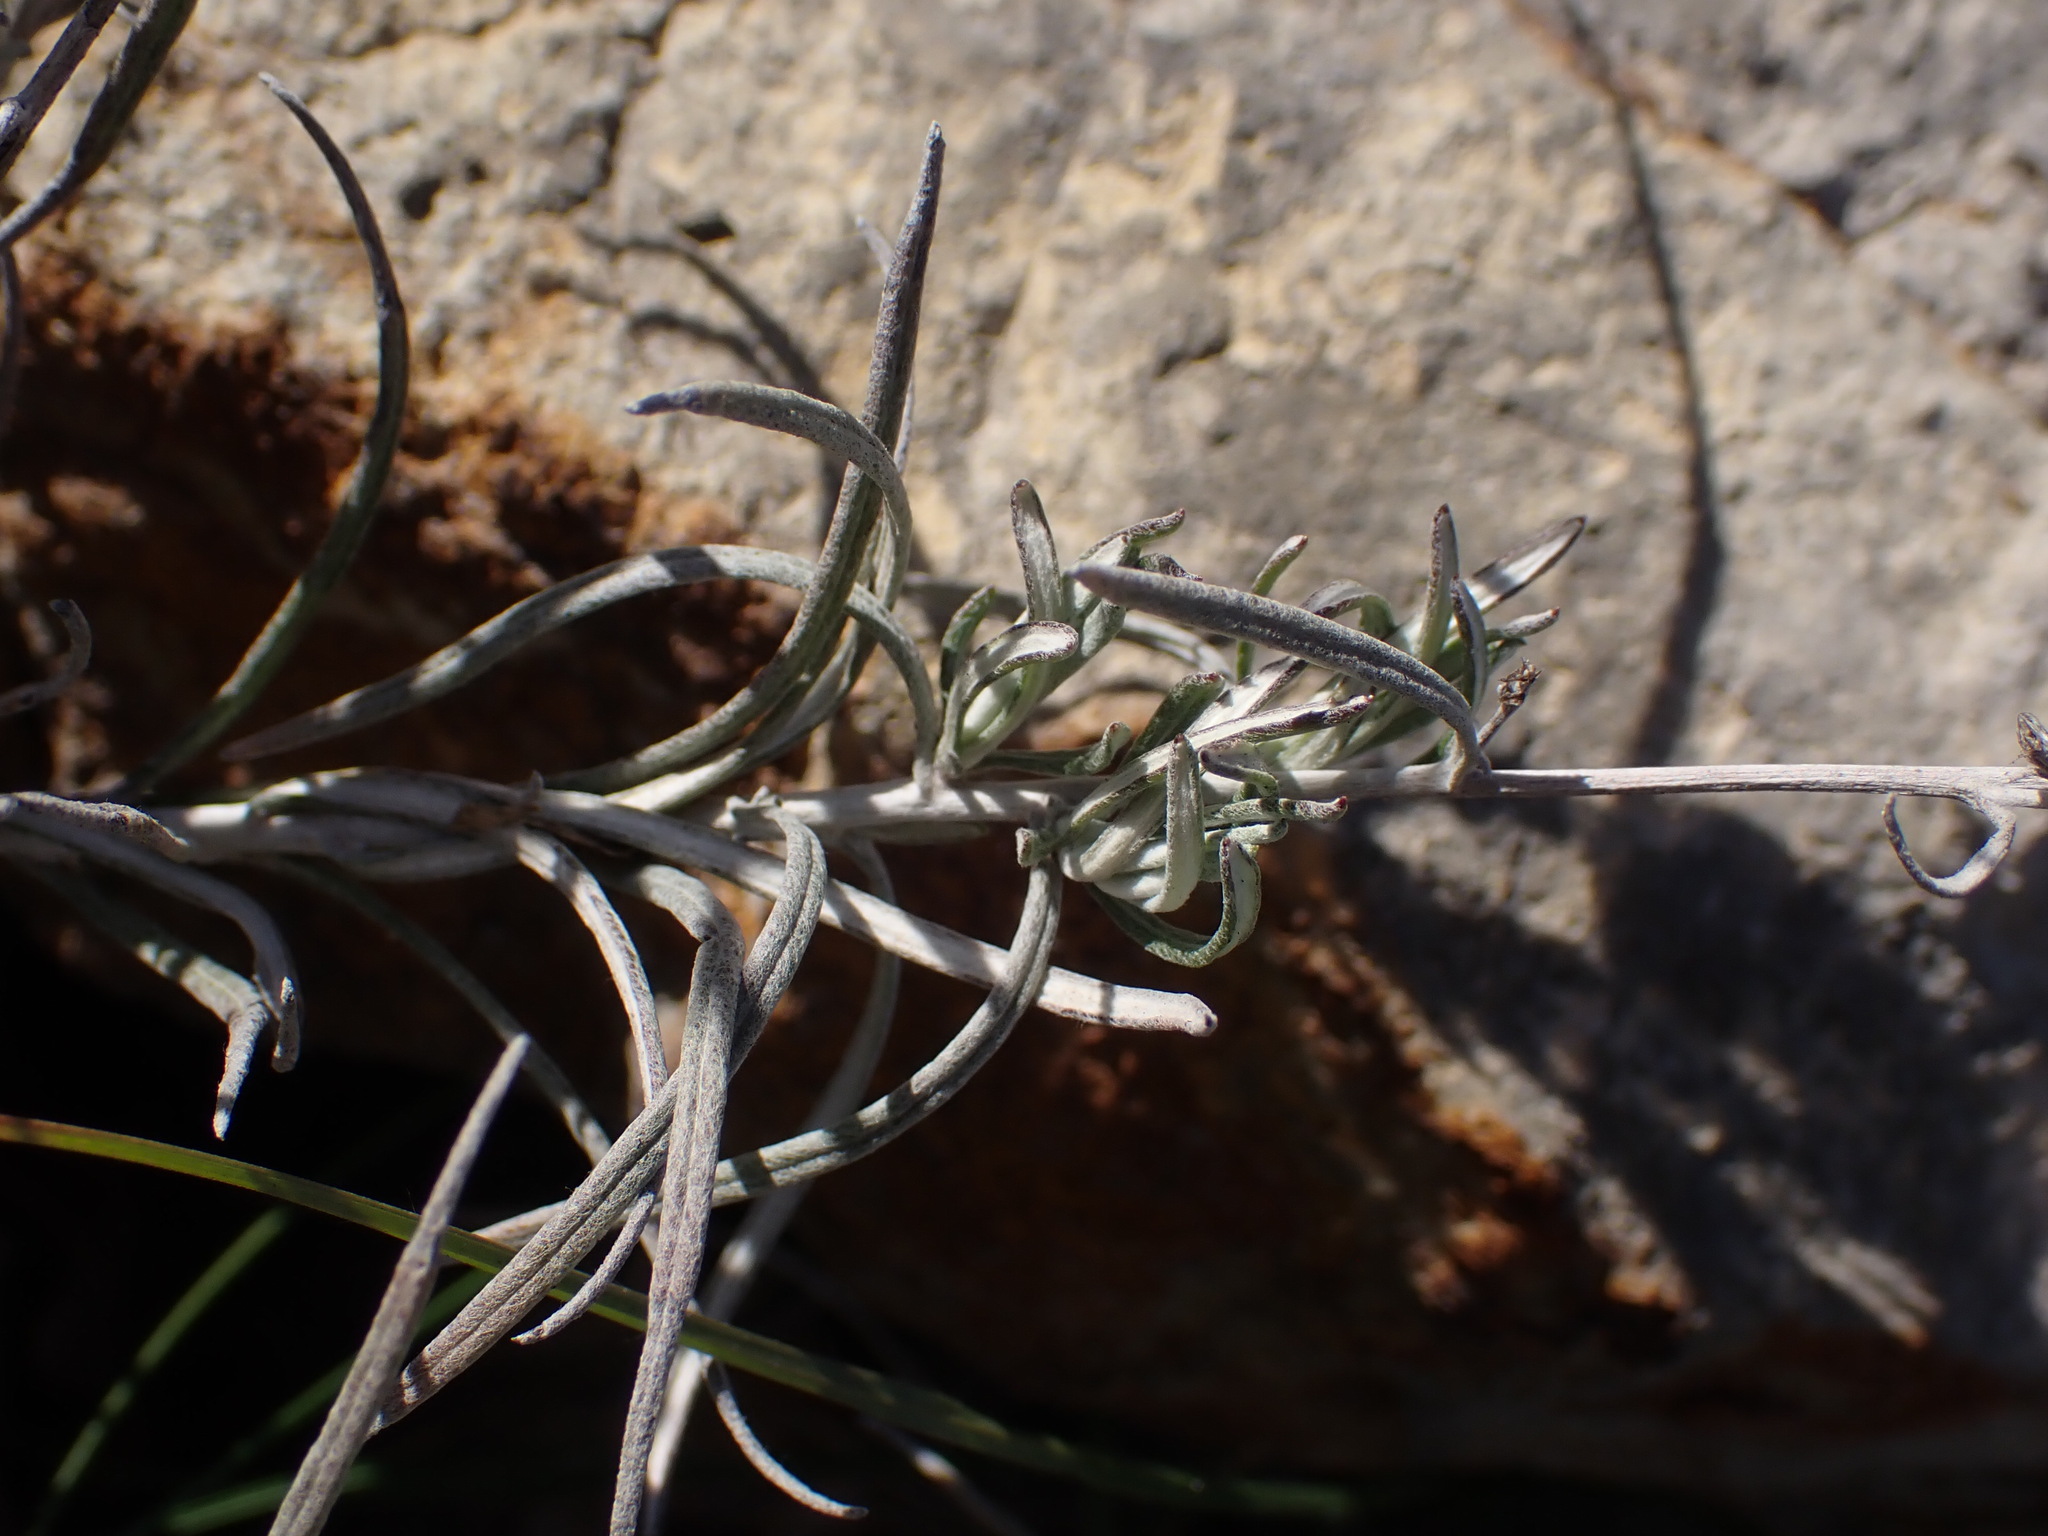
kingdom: Plantae
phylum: Tracheophyta
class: Magnoliopsida
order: Asterales
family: Asteraceae
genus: Phagnalon
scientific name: Phagnalon sordidum
